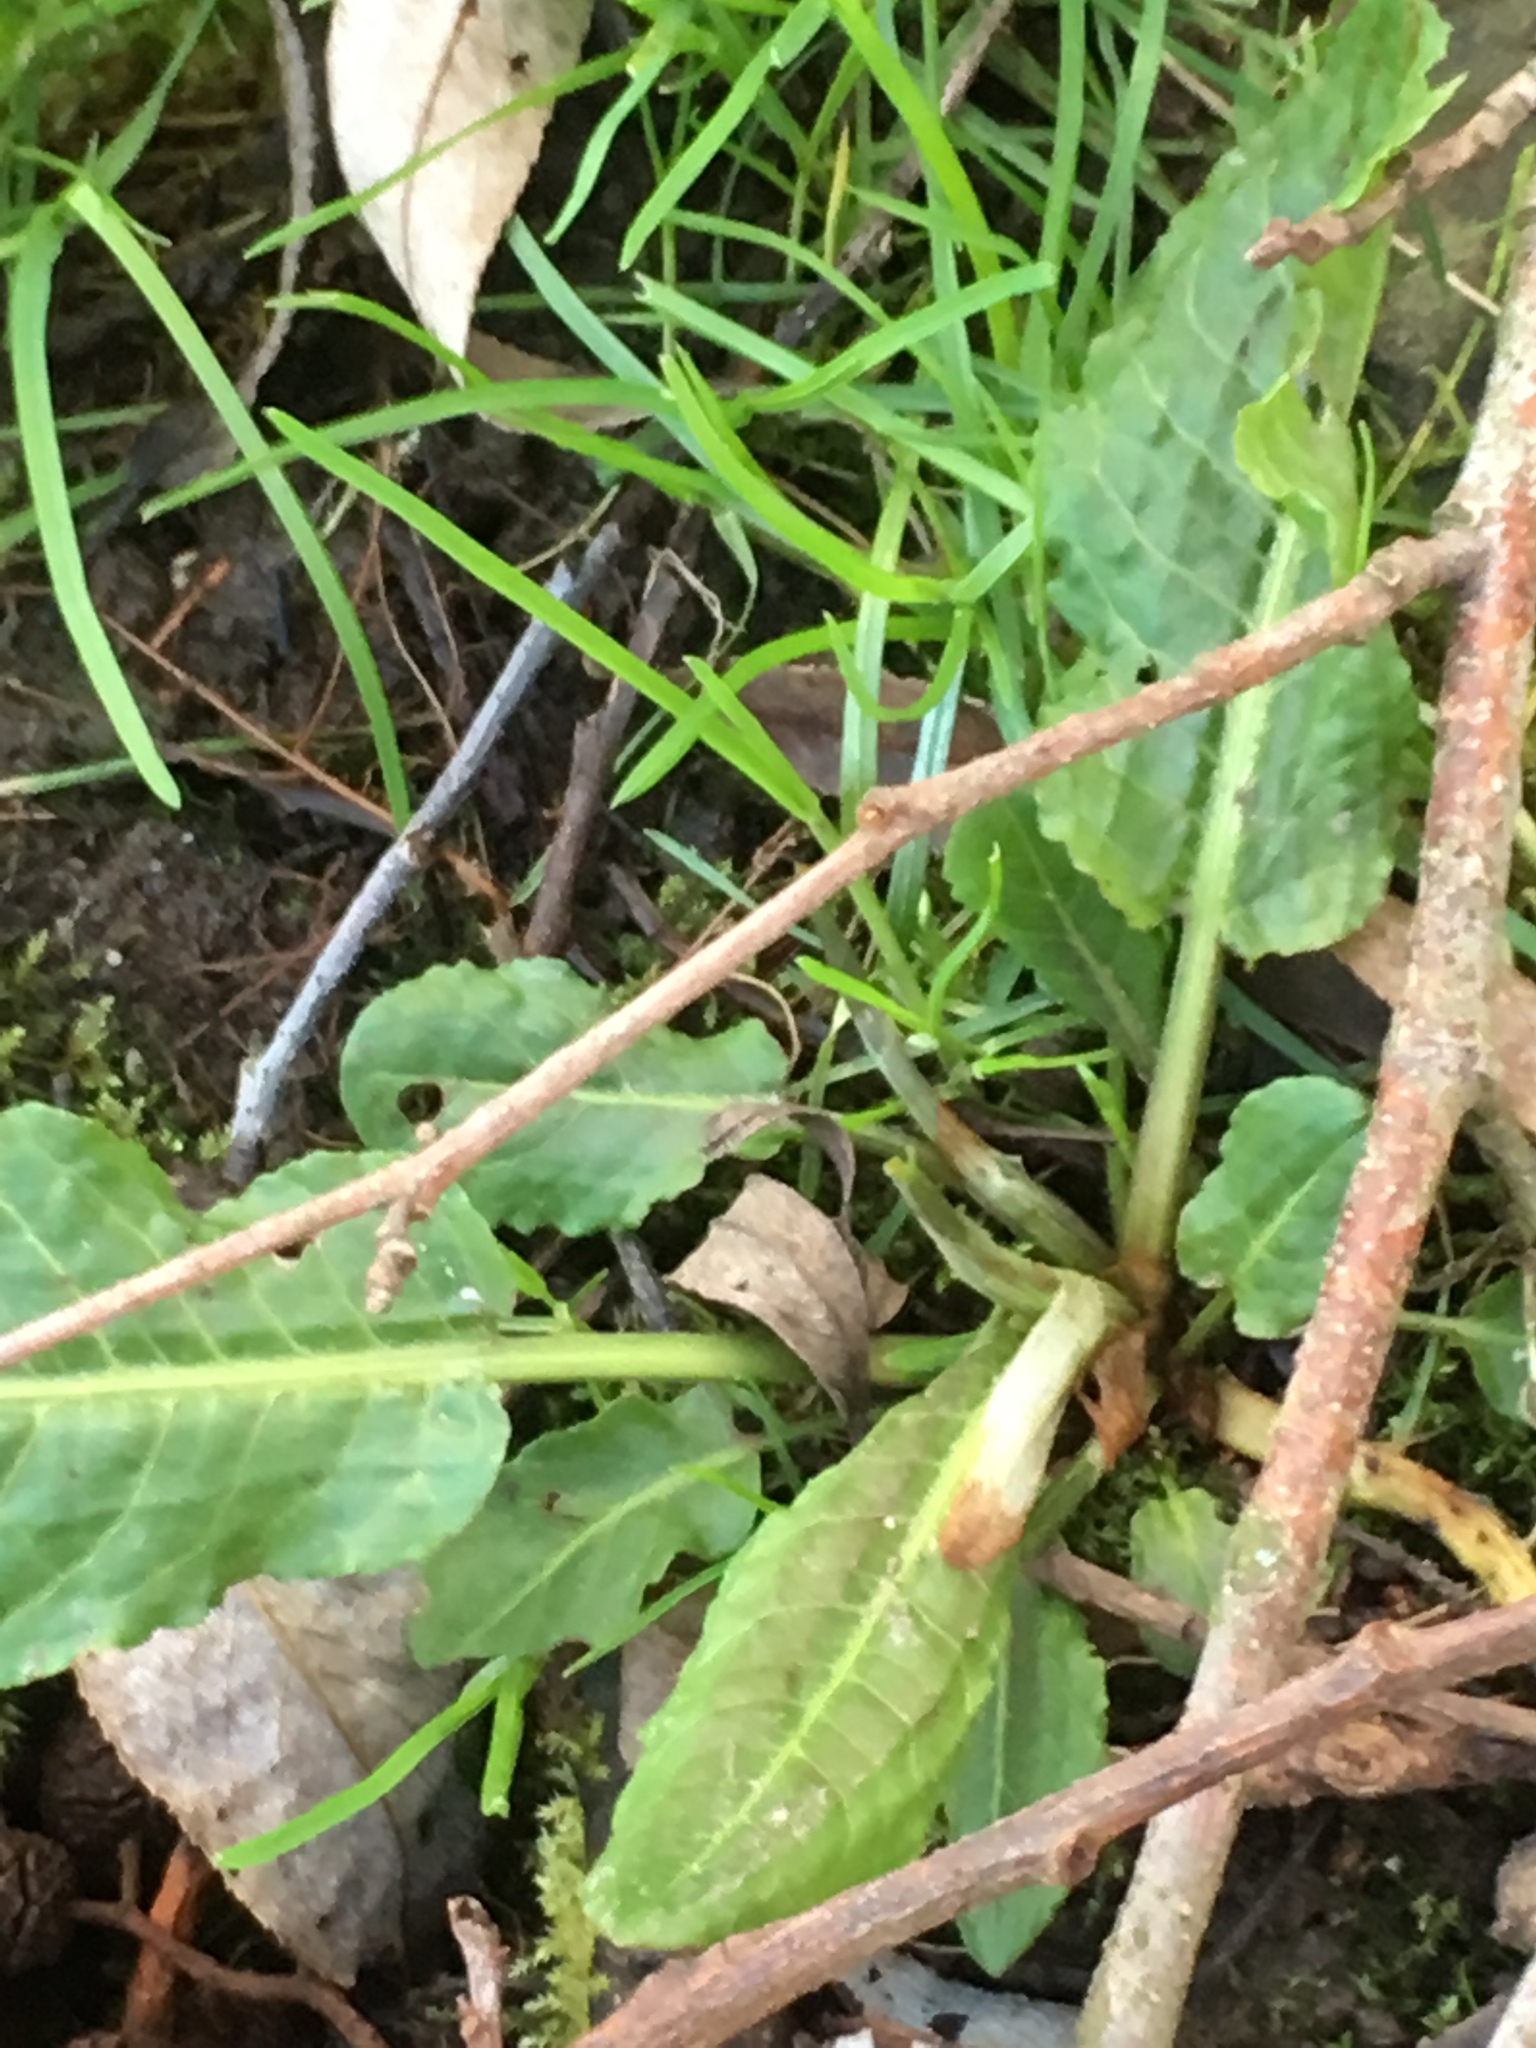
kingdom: Plantae
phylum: Tracheophyta
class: Magnoliopsida
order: Caryophyllales
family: Polygonaceae
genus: Rumex
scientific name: Rumex obtusifolius
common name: Bitter dock
